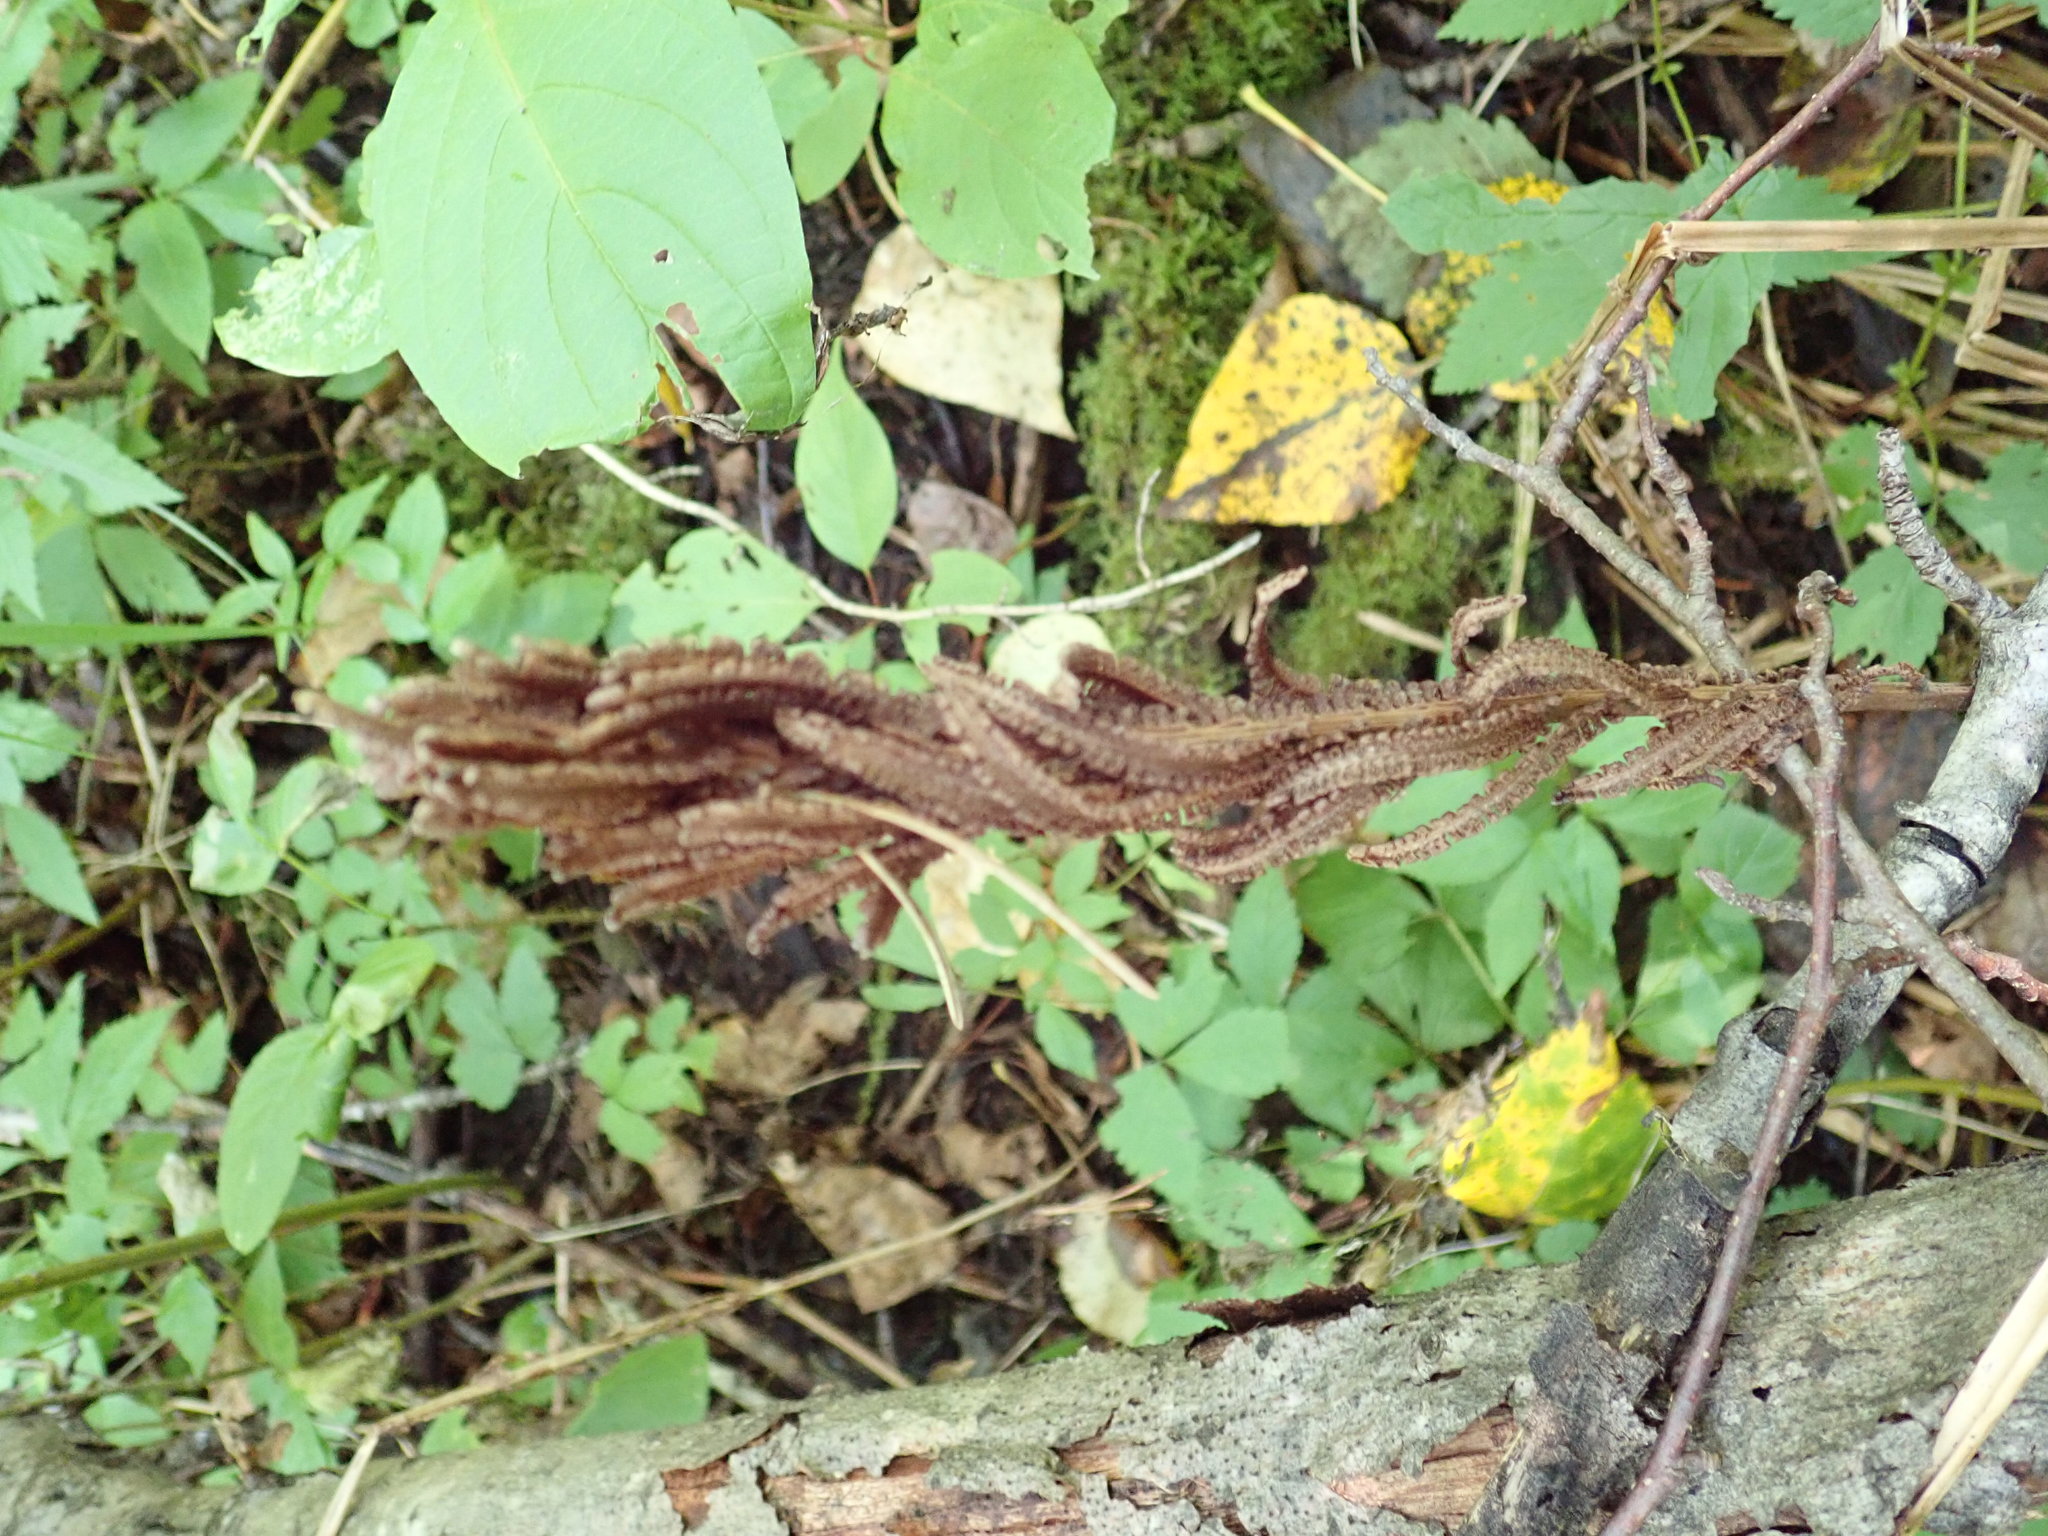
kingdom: Plantae
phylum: Tracheophyta
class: Polypodiopsida
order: Polypodiales
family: Onocleaceae
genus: Matteuccia
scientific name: Matteuccia struthiopteris
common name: Ostrich fern
